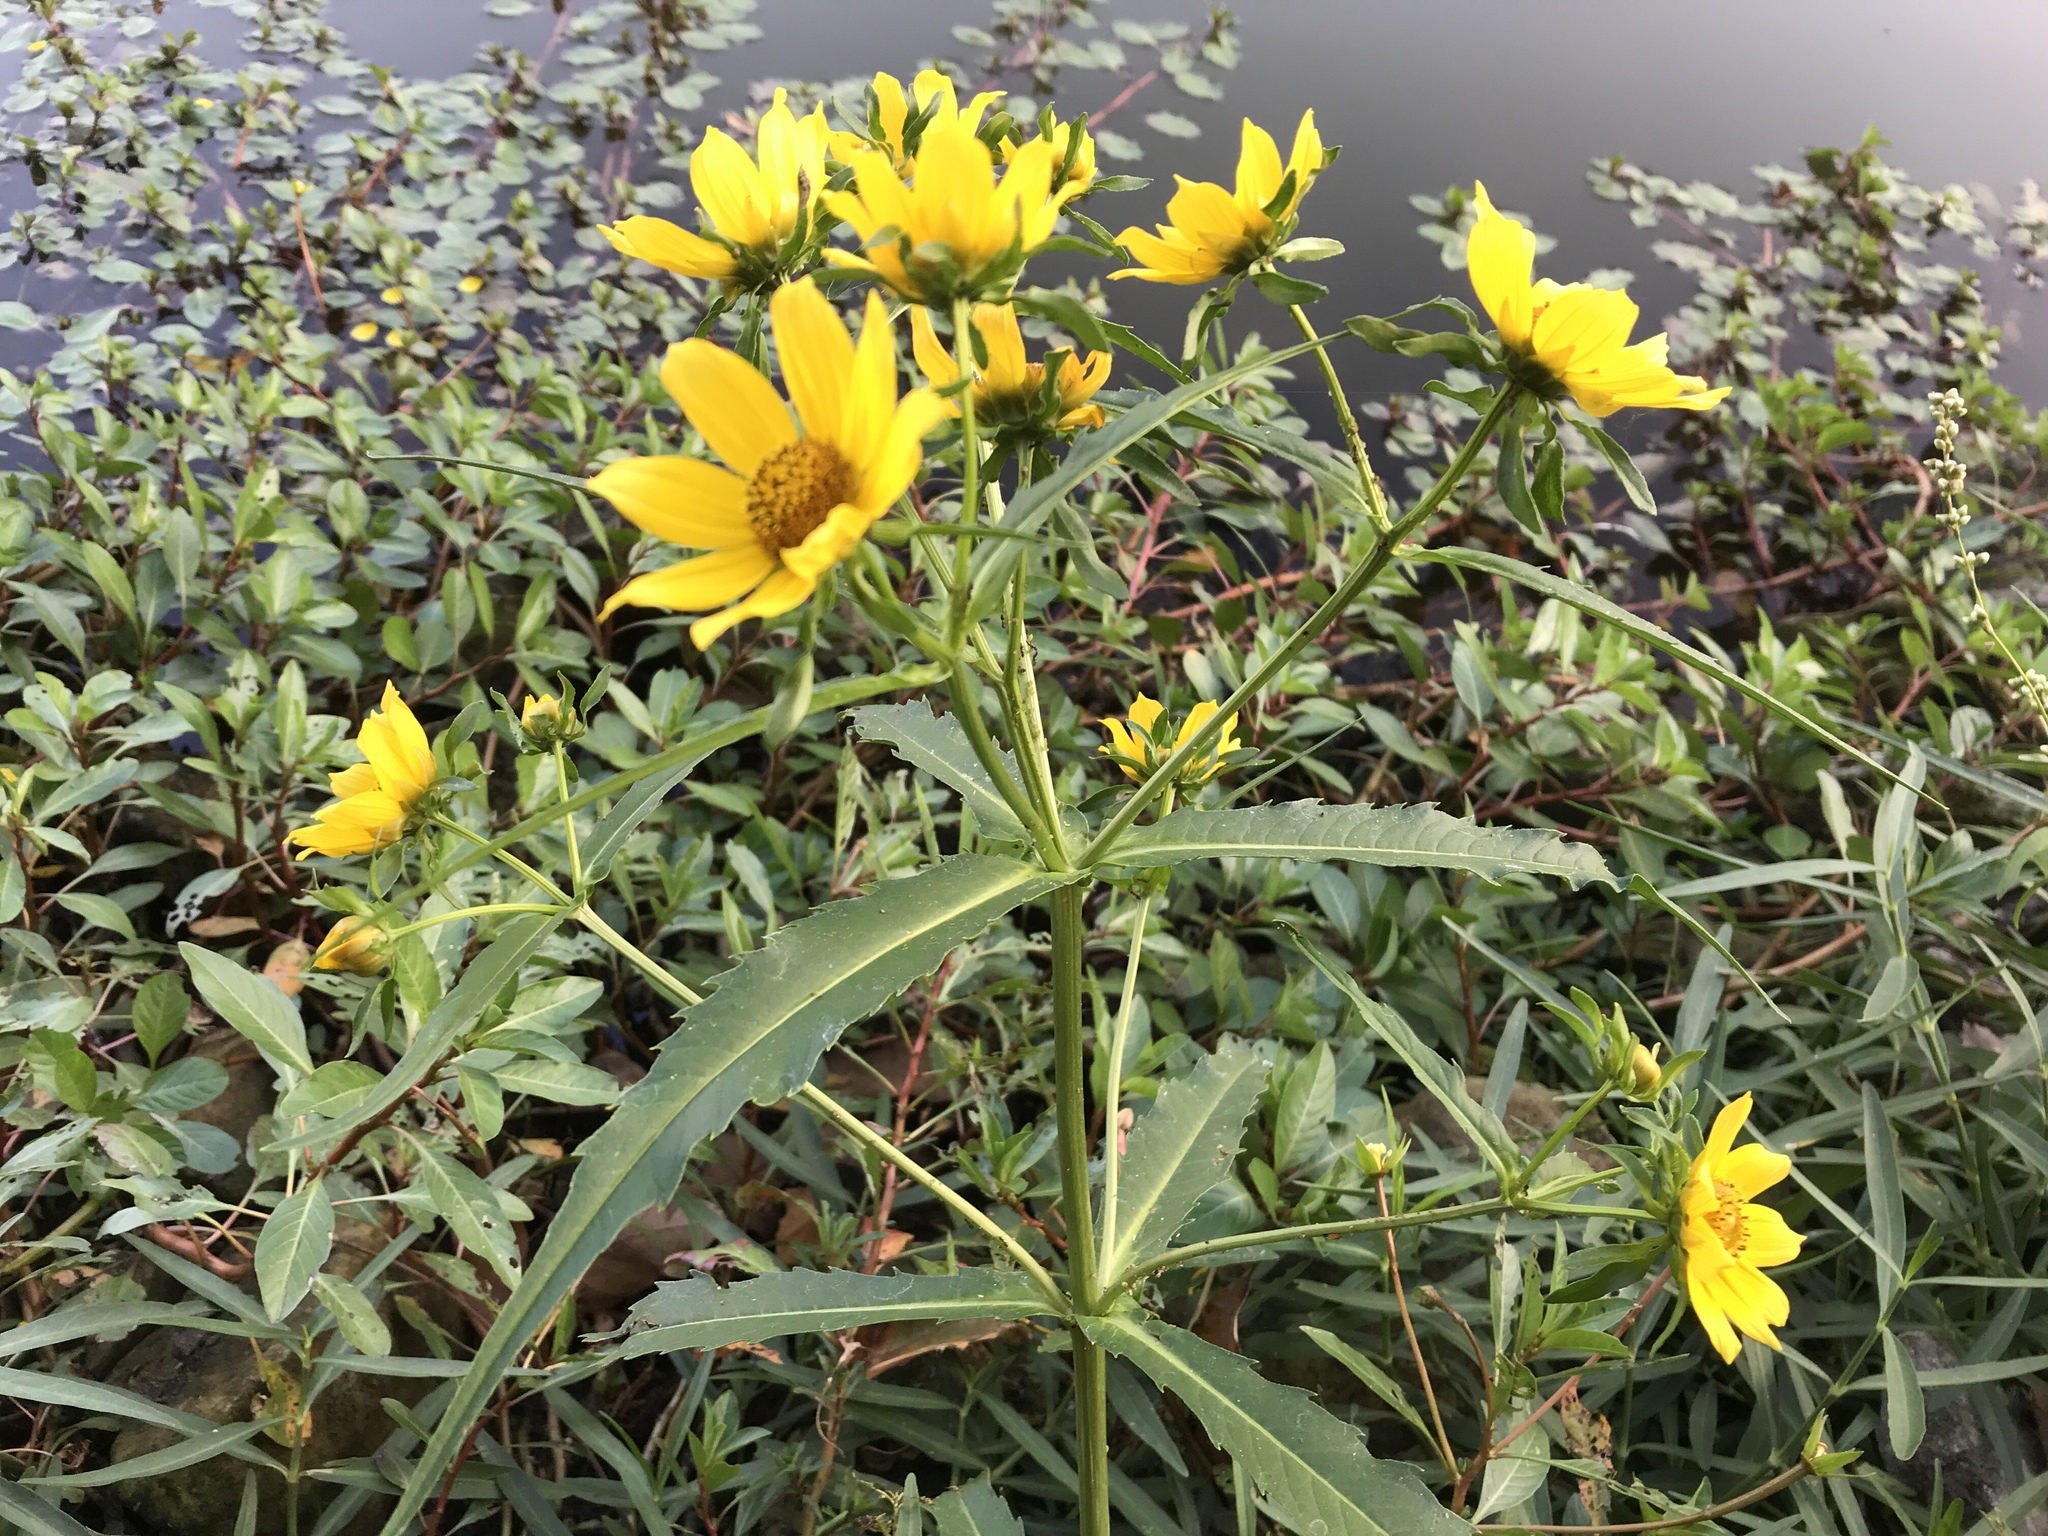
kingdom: Plantae
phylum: Tracheophyta
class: Magnoliopsida
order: Asterales
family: Asteraceae
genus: Bidens
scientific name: Bidens cernua
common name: Nodding bur-marigold
